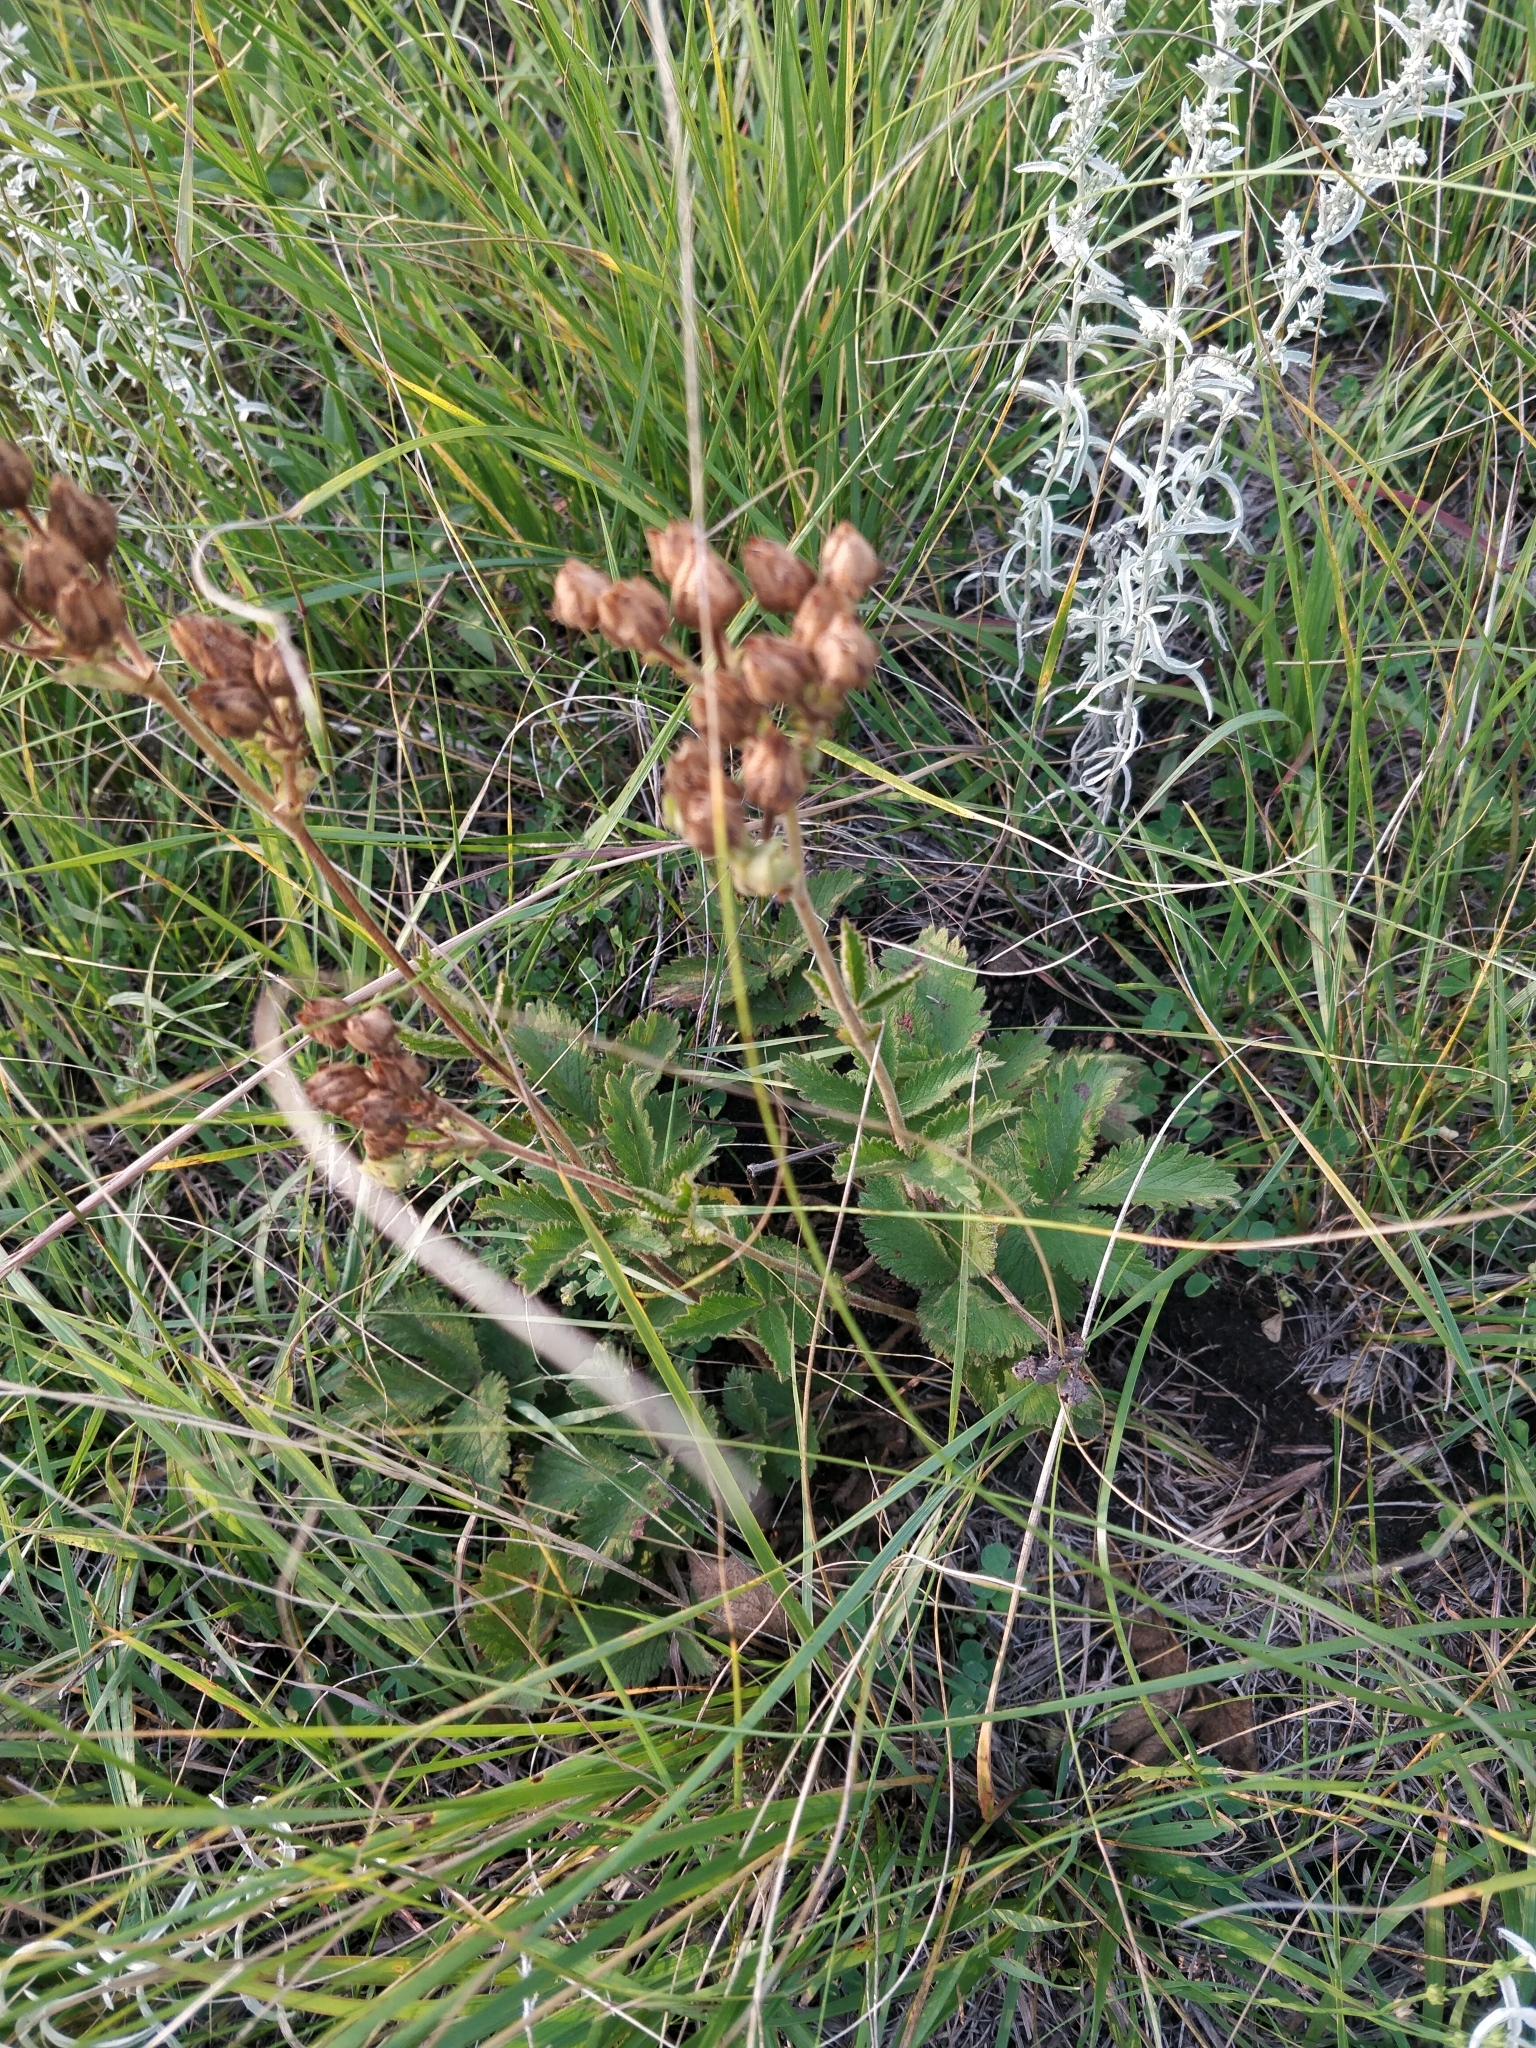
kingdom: Plantae
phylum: Tracheophyta
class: Magnoliopsida
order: Rosales
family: Rosaceae
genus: Drymocallis
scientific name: Drymocallis arguta
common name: Tall cinquefoil
